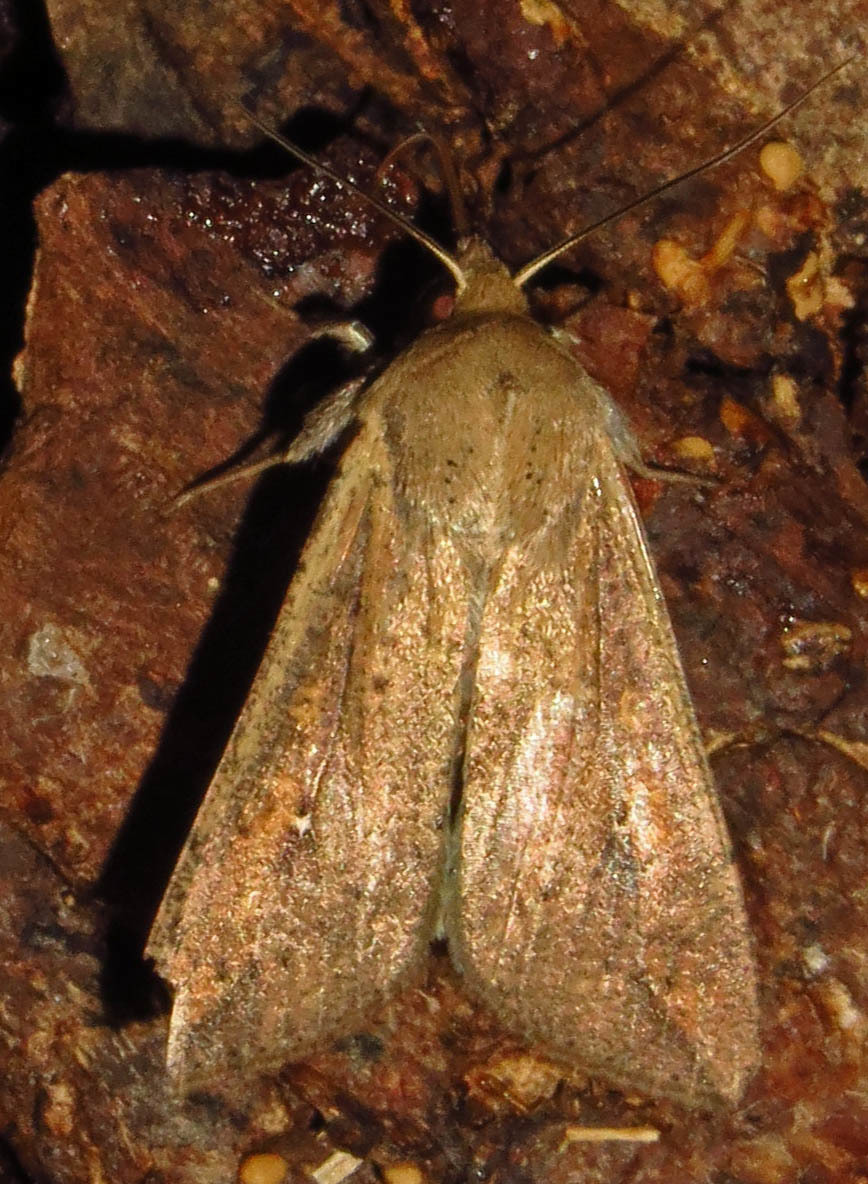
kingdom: Animalia
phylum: Arthropoda
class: Insecta
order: Lepidoptera
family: Noctuidae
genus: Mythimna
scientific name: Mythimna unipuncta
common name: White-speck
